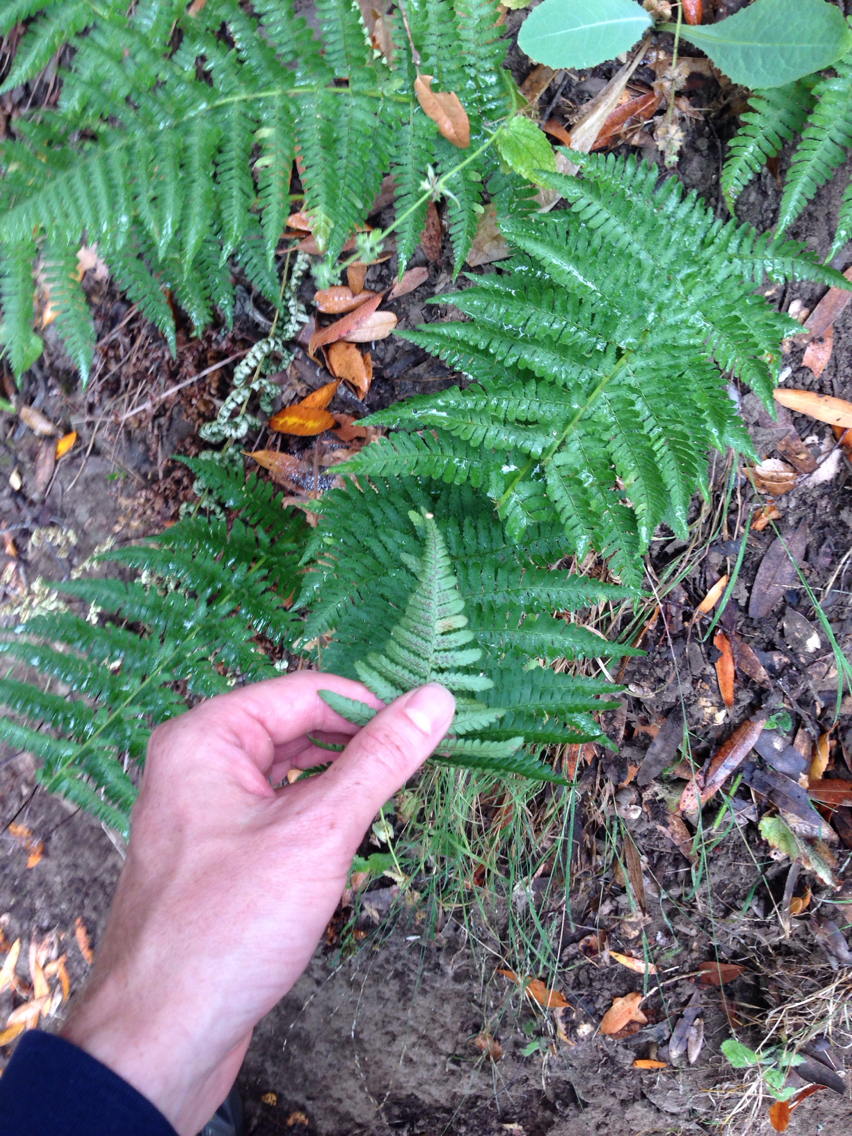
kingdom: Plantae
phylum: Tracheophyta
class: Polypodiopsida
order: Polypodiales
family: Dryopteridaceae
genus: Dryopteris
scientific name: Dryopteris arguta
